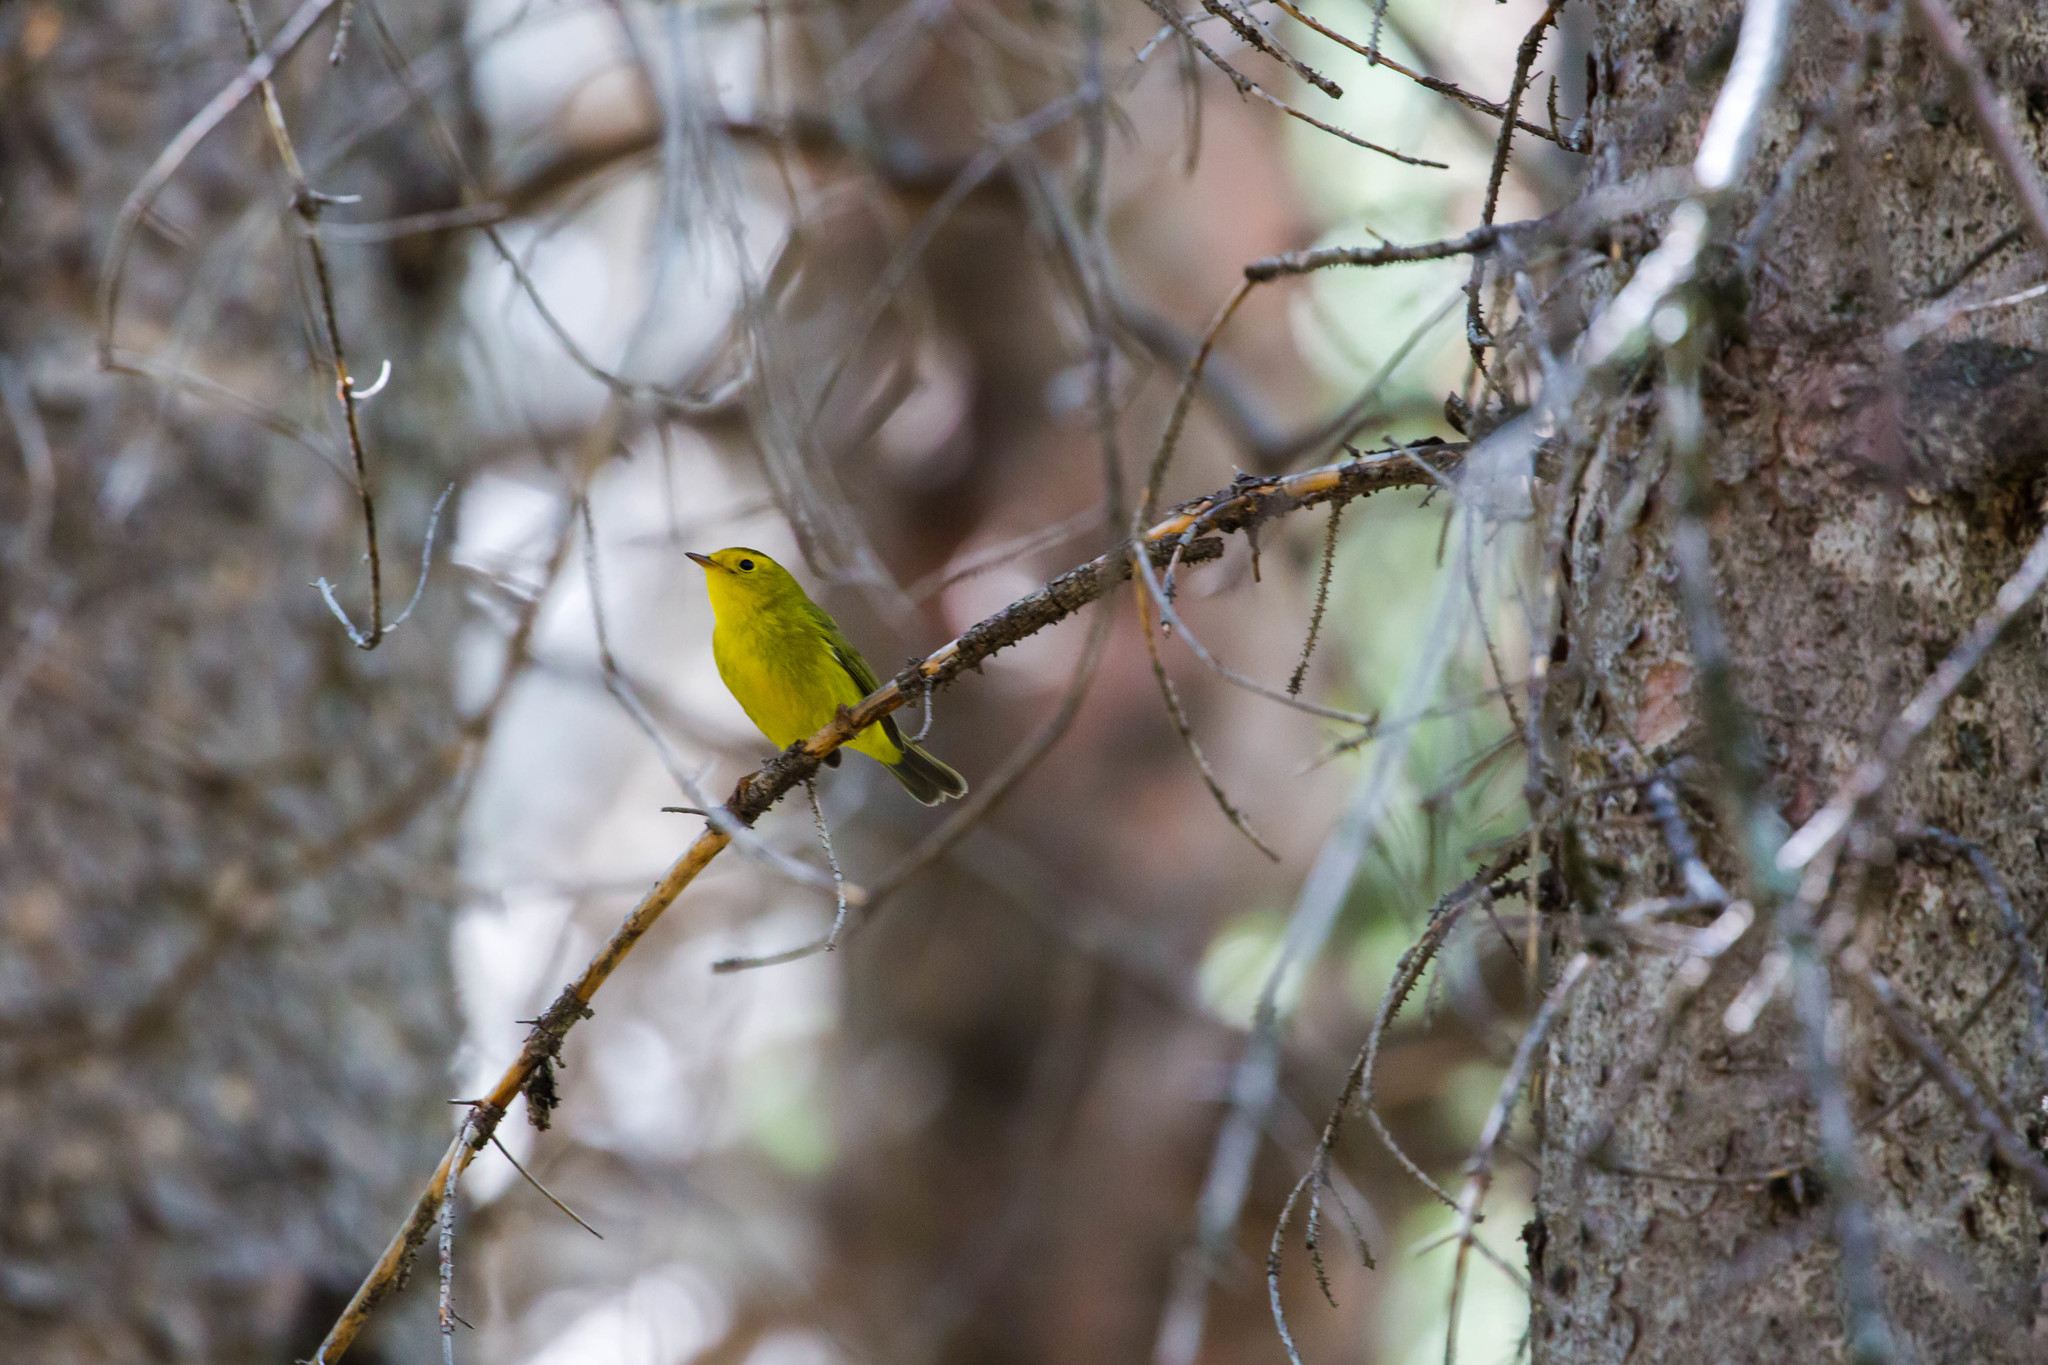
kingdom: Animalia
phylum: Chordata
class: Aves
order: Passeriformes
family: Parulidae
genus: Cardellina
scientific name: Cardellina pusilla
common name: Wilson's warbler
